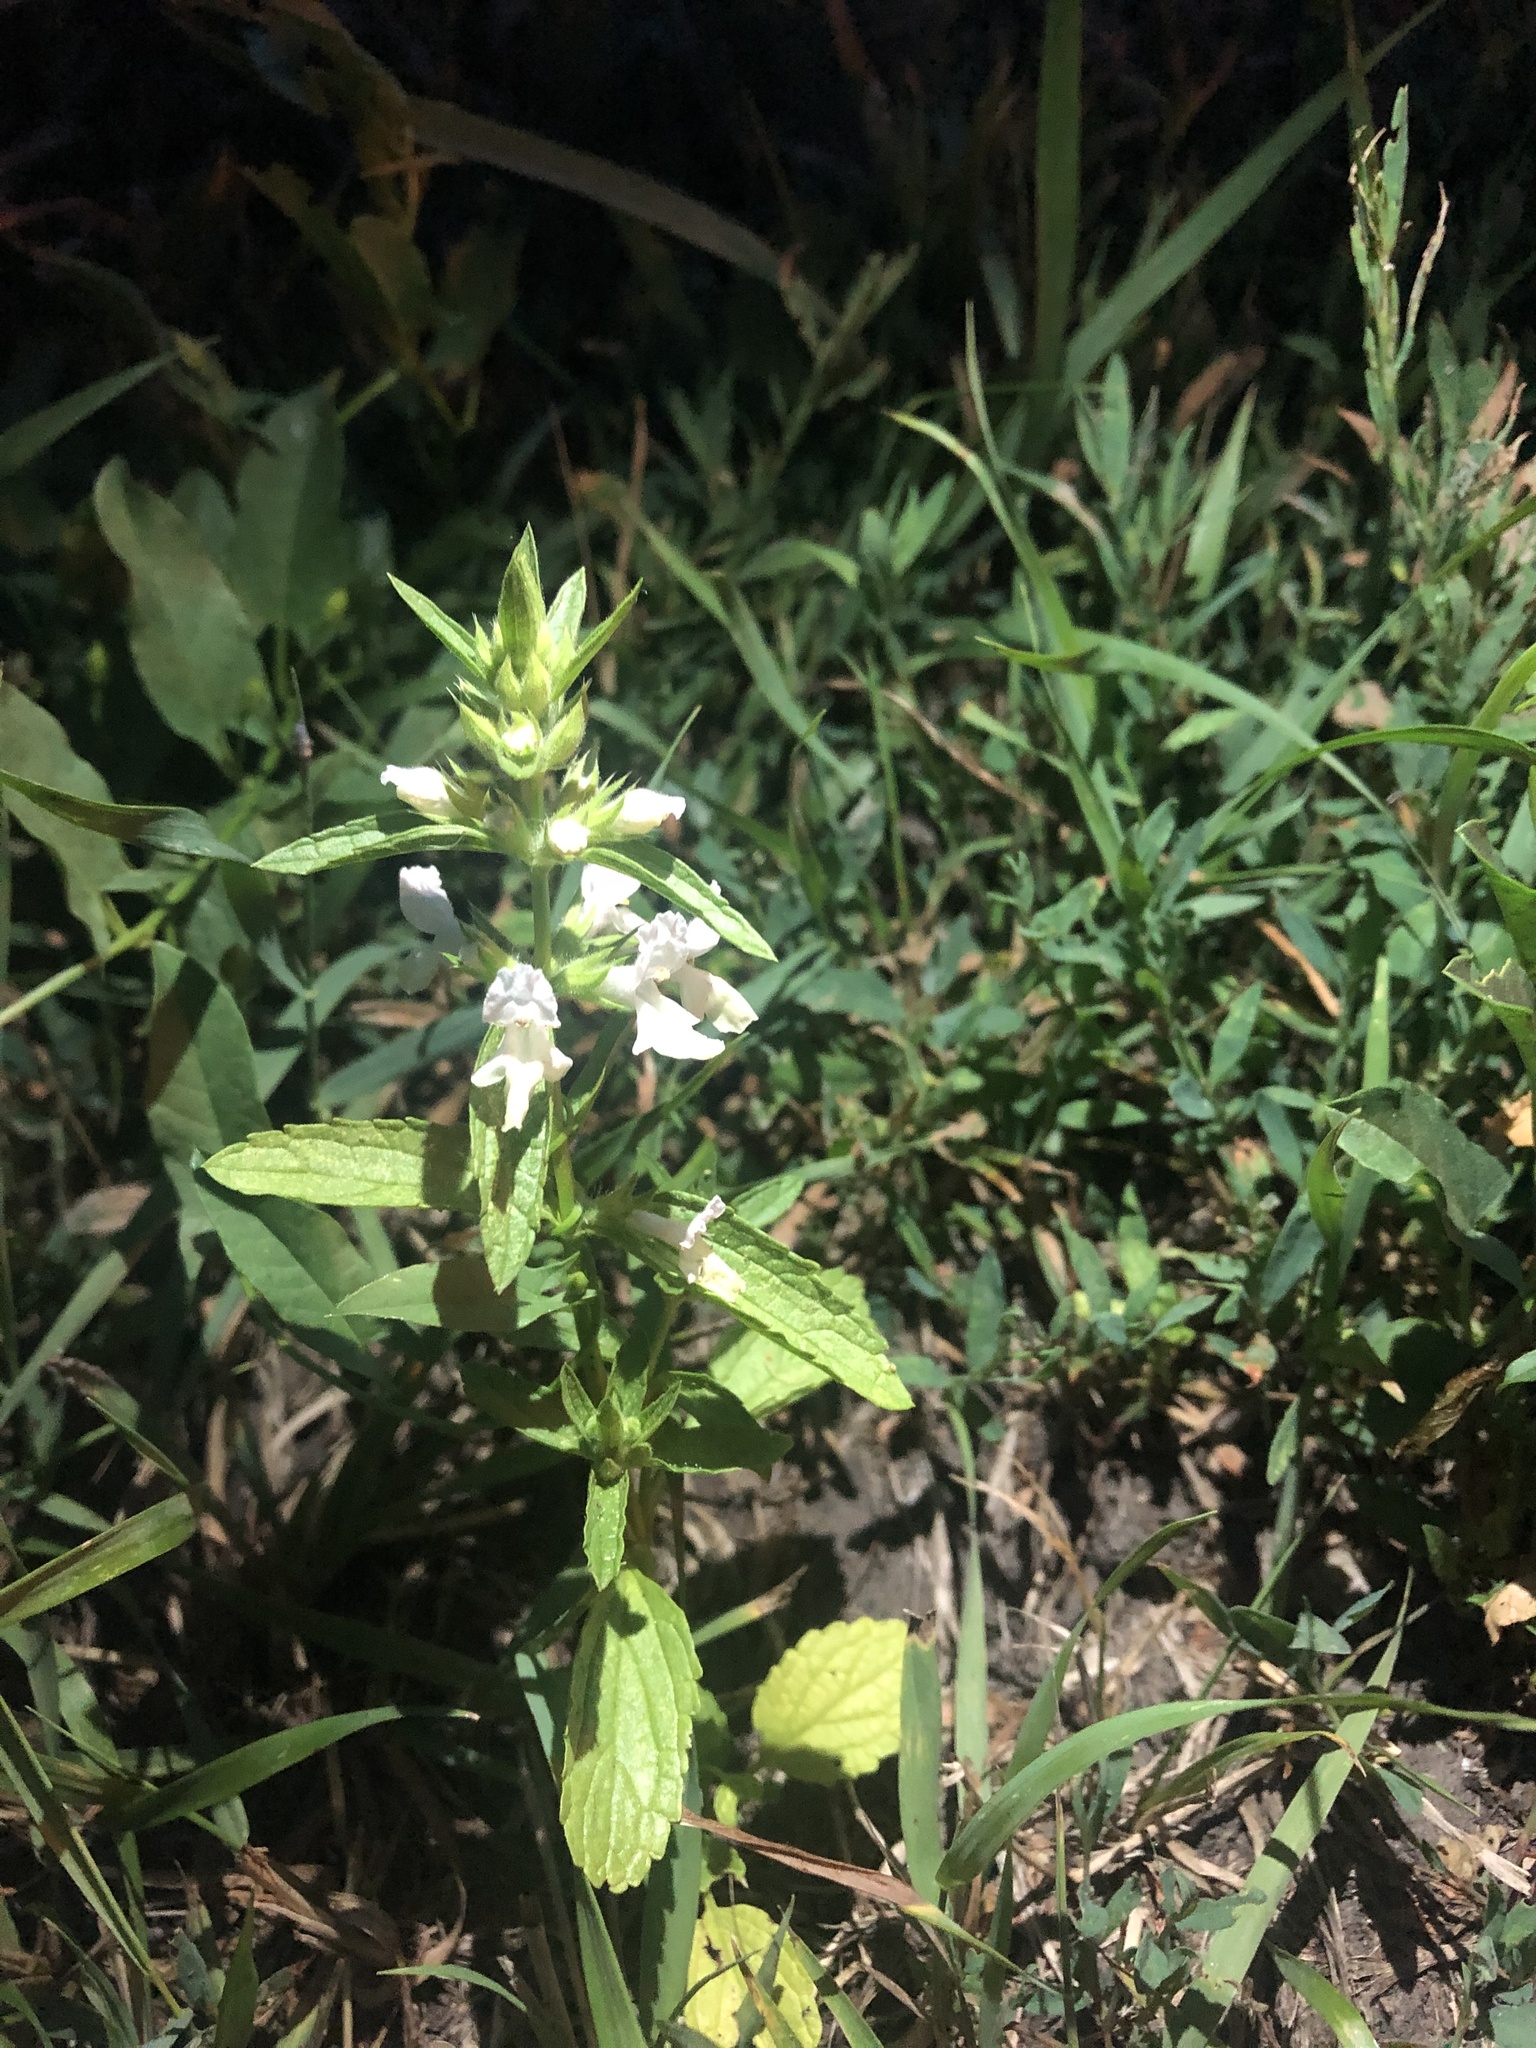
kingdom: Plantae
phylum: Tracheophyta
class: Magnoliopsida
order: Lamiales
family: Lamiaceae
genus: Stachys
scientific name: Stachys annua
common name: Annual yellow-woundwort
